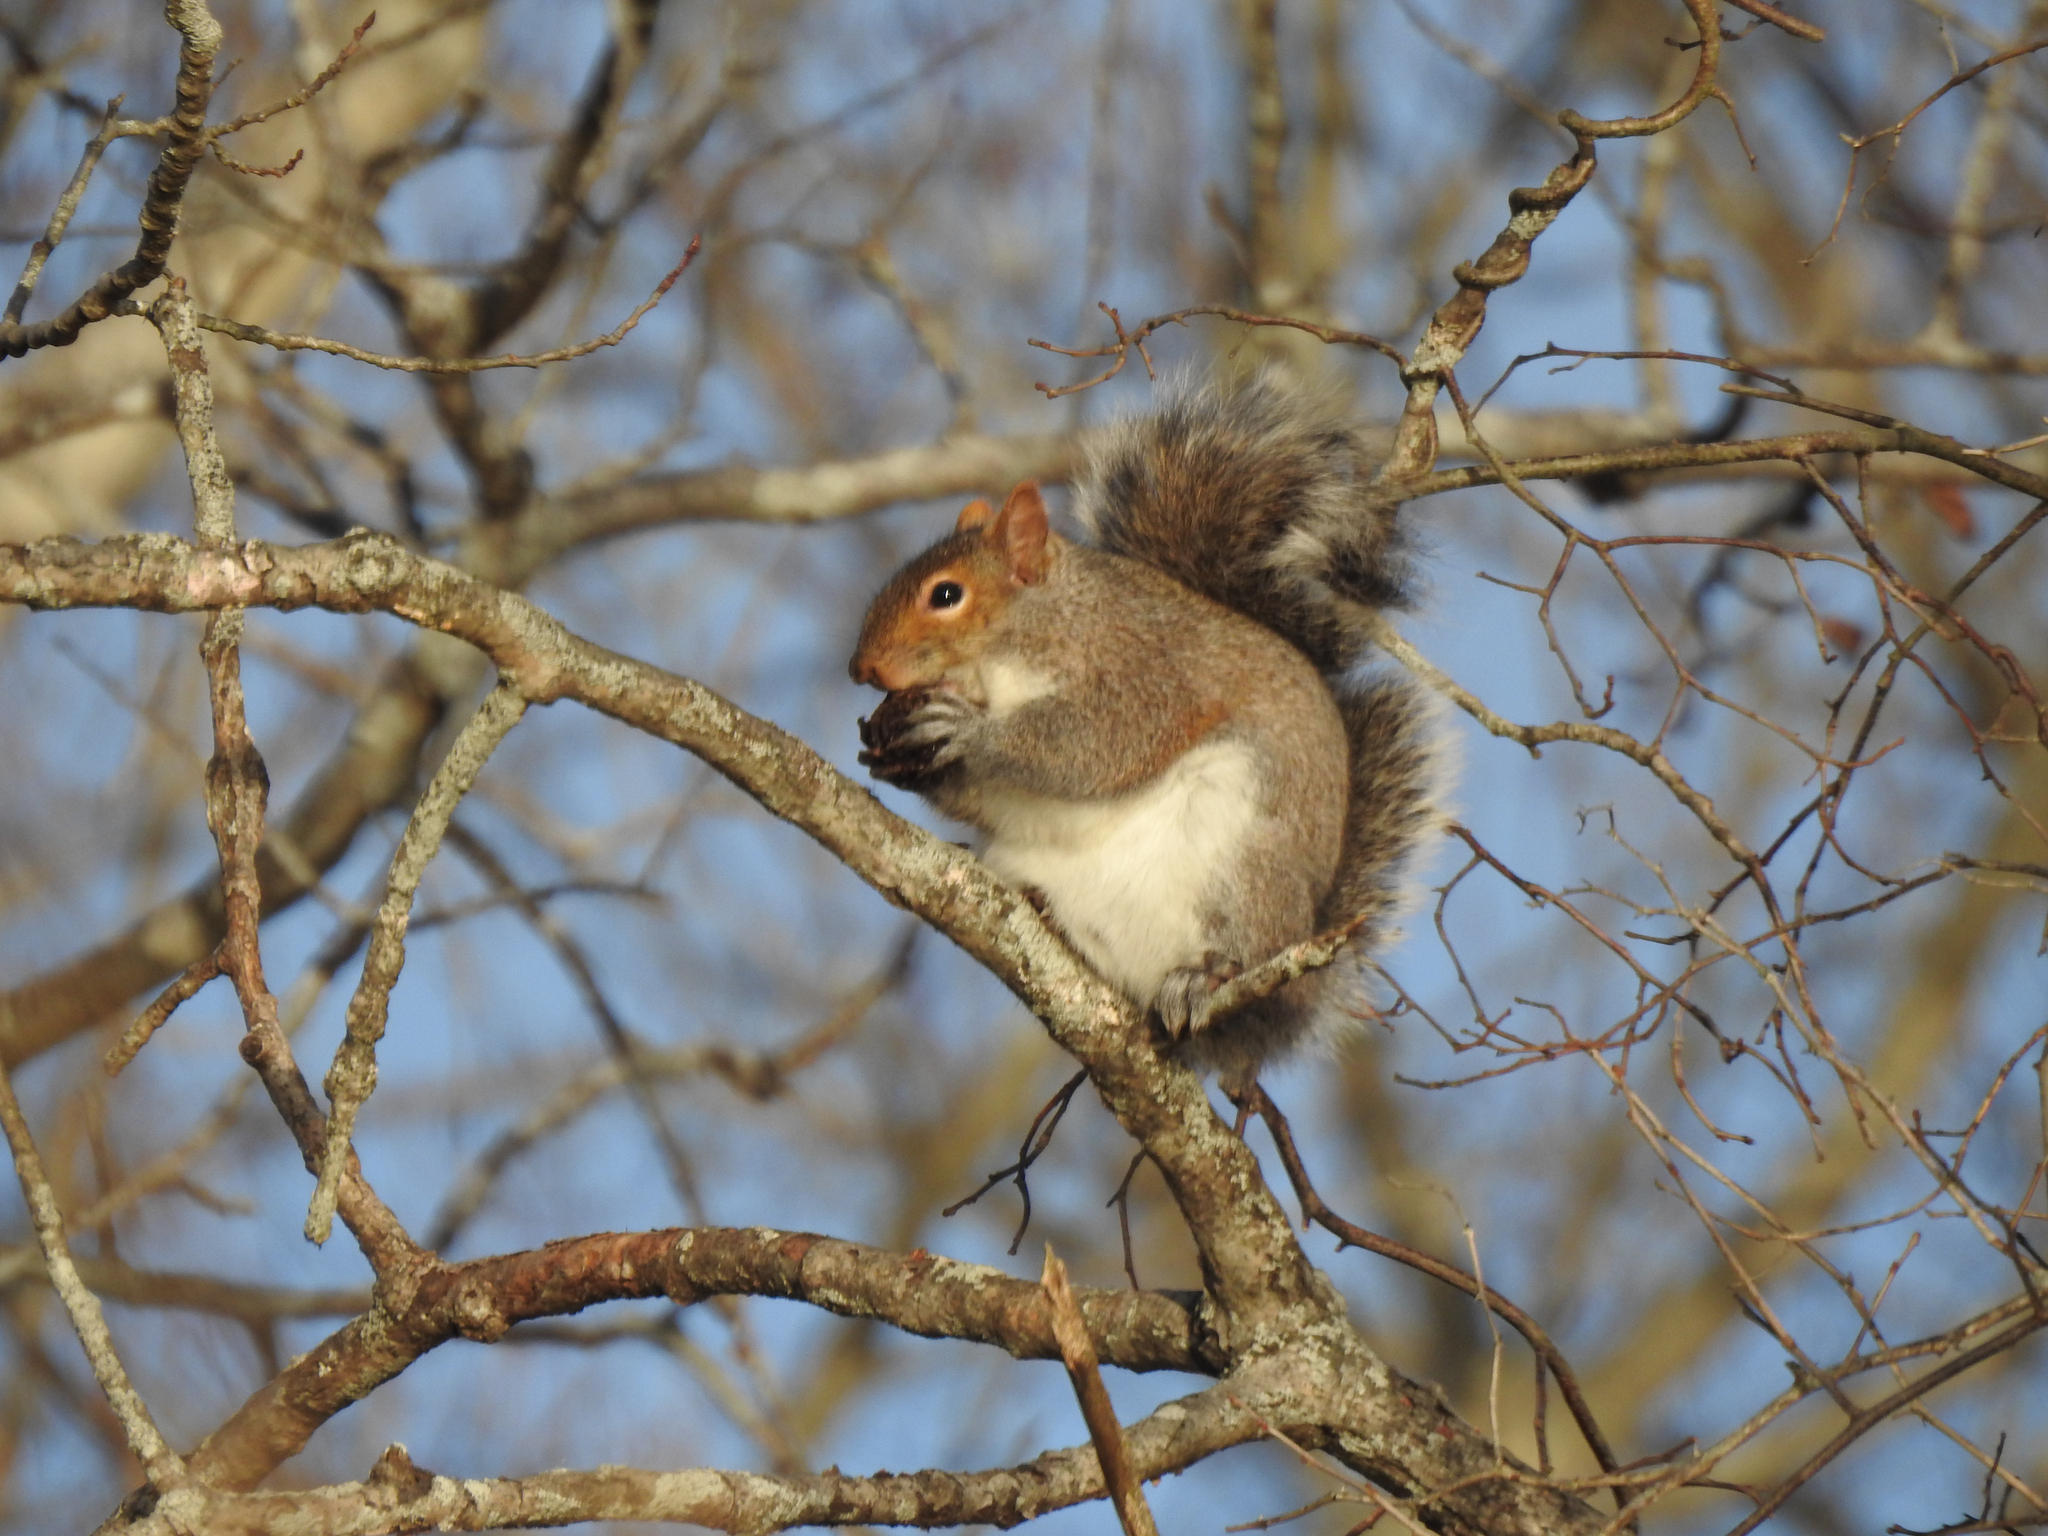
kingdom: Animalia
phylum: Chordata
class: Mammalia
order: Rodentia
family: Sciuridae
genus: Sciurus
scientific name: Sciurus carolinensis
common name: Eastern gray squirrel
